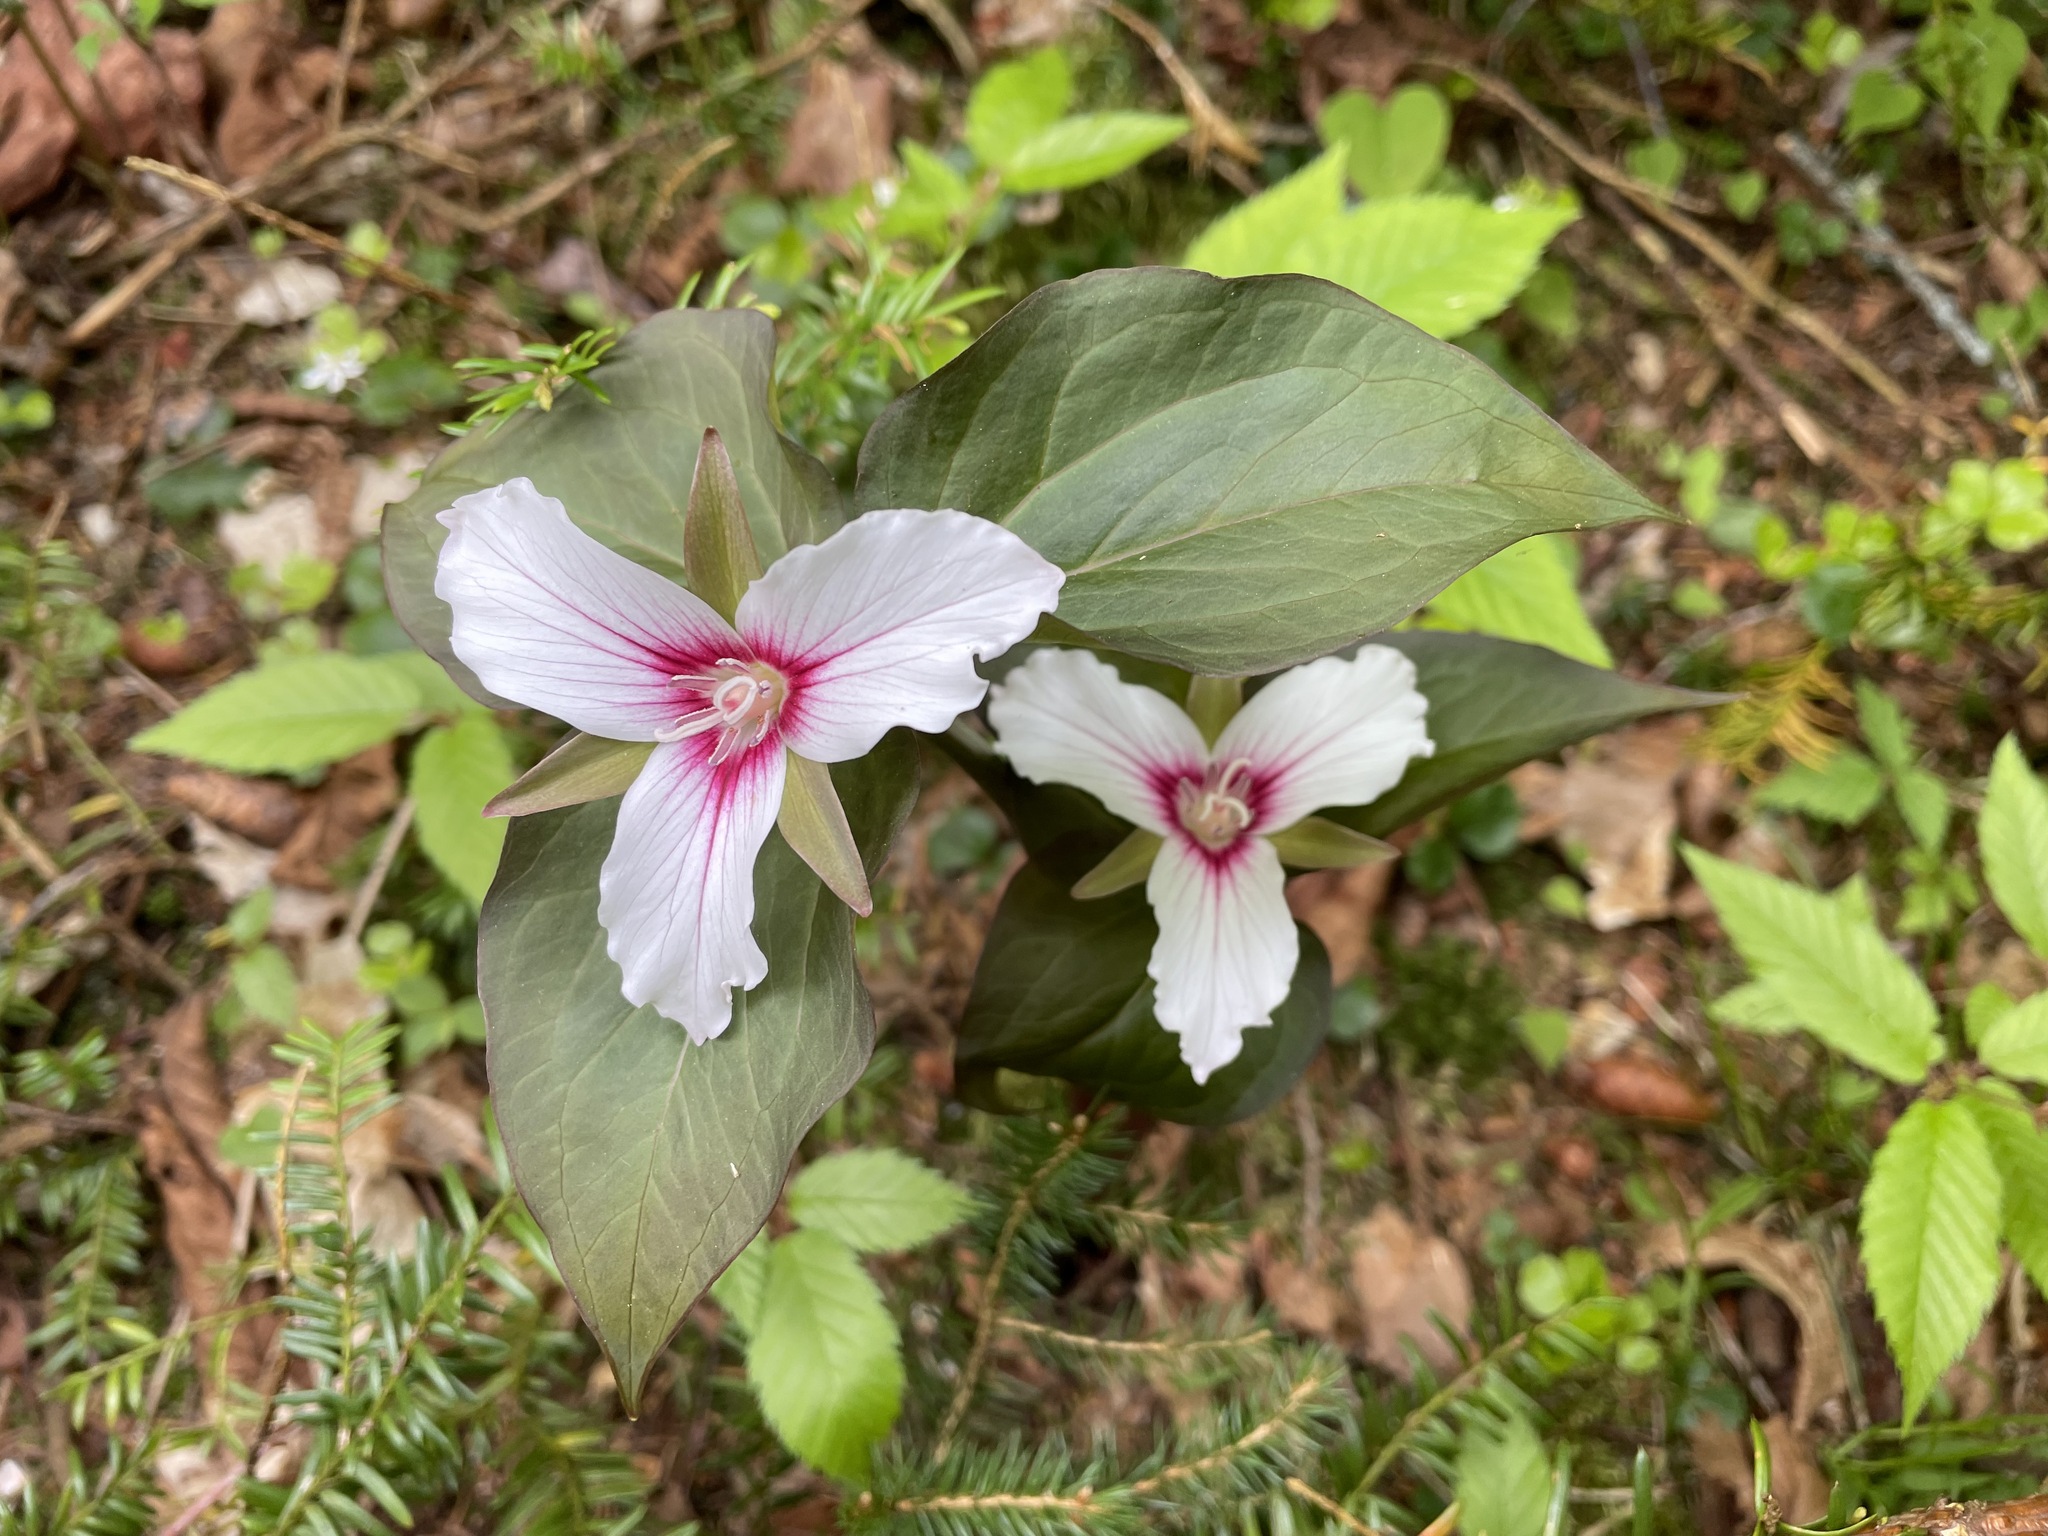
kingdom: Plantae
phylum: Tracheophyta
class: Liliopsida
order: Liliales
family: Melanthiaceae
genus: Trillium
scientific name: Trillium undulatum
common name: Paint trillium
